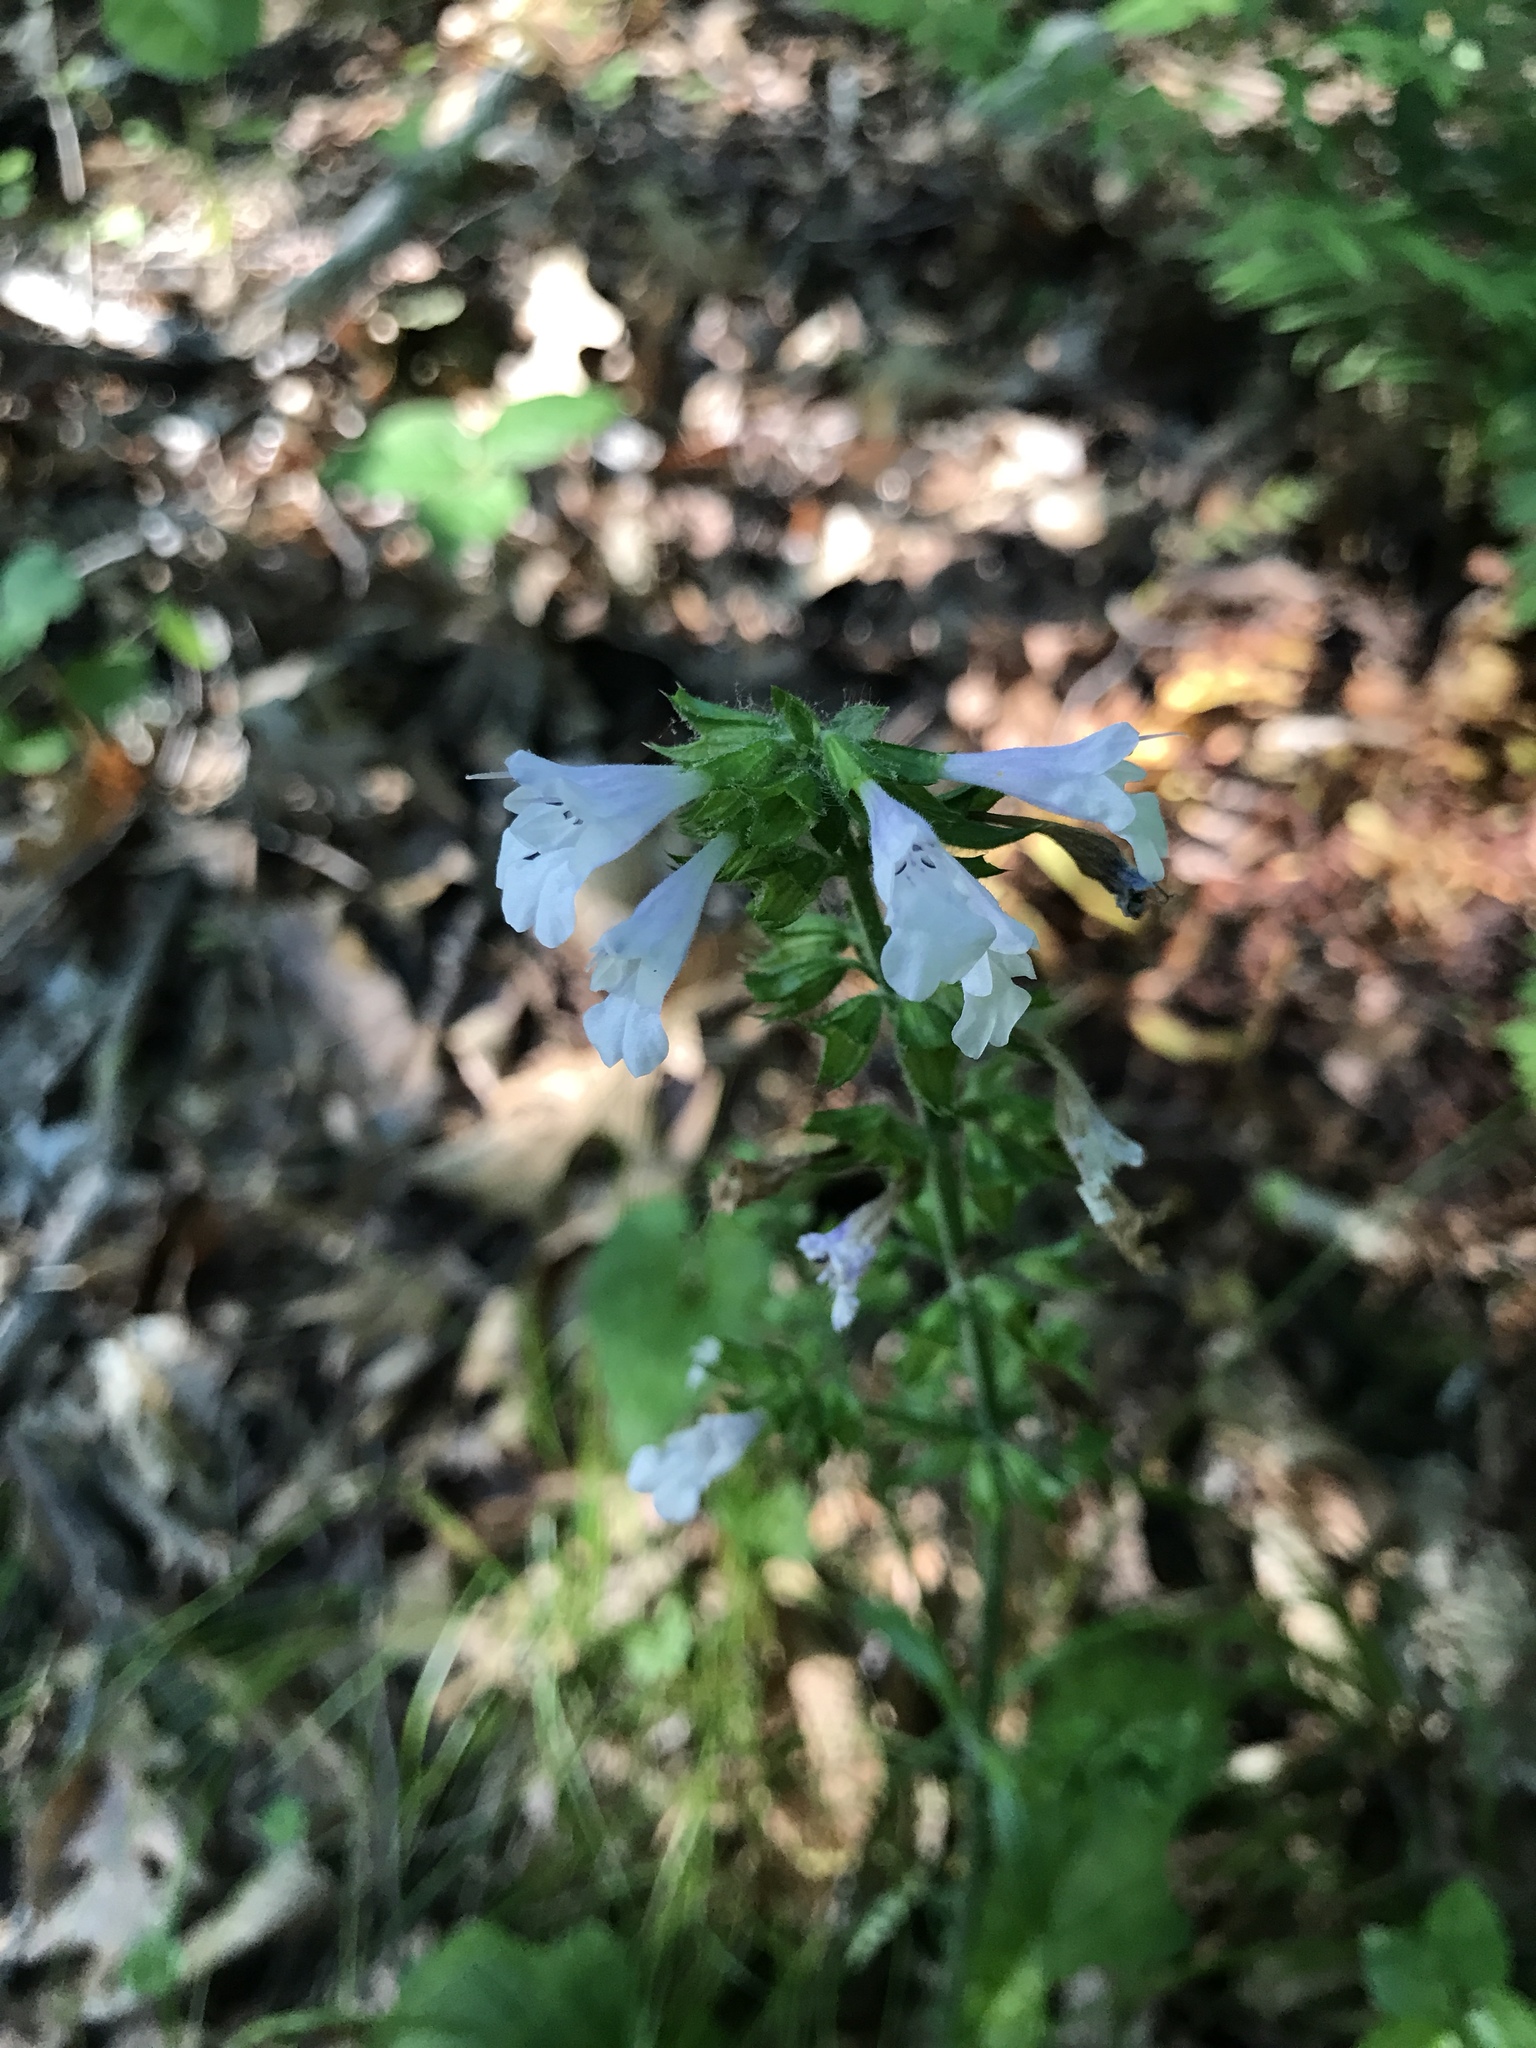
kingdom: Plantae
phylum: Tracheophyta
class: Magnoliopsida
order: Lamiales
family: Lamiaceae
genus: Salvia
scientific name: Salvia lyrata
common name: Cancerweed
